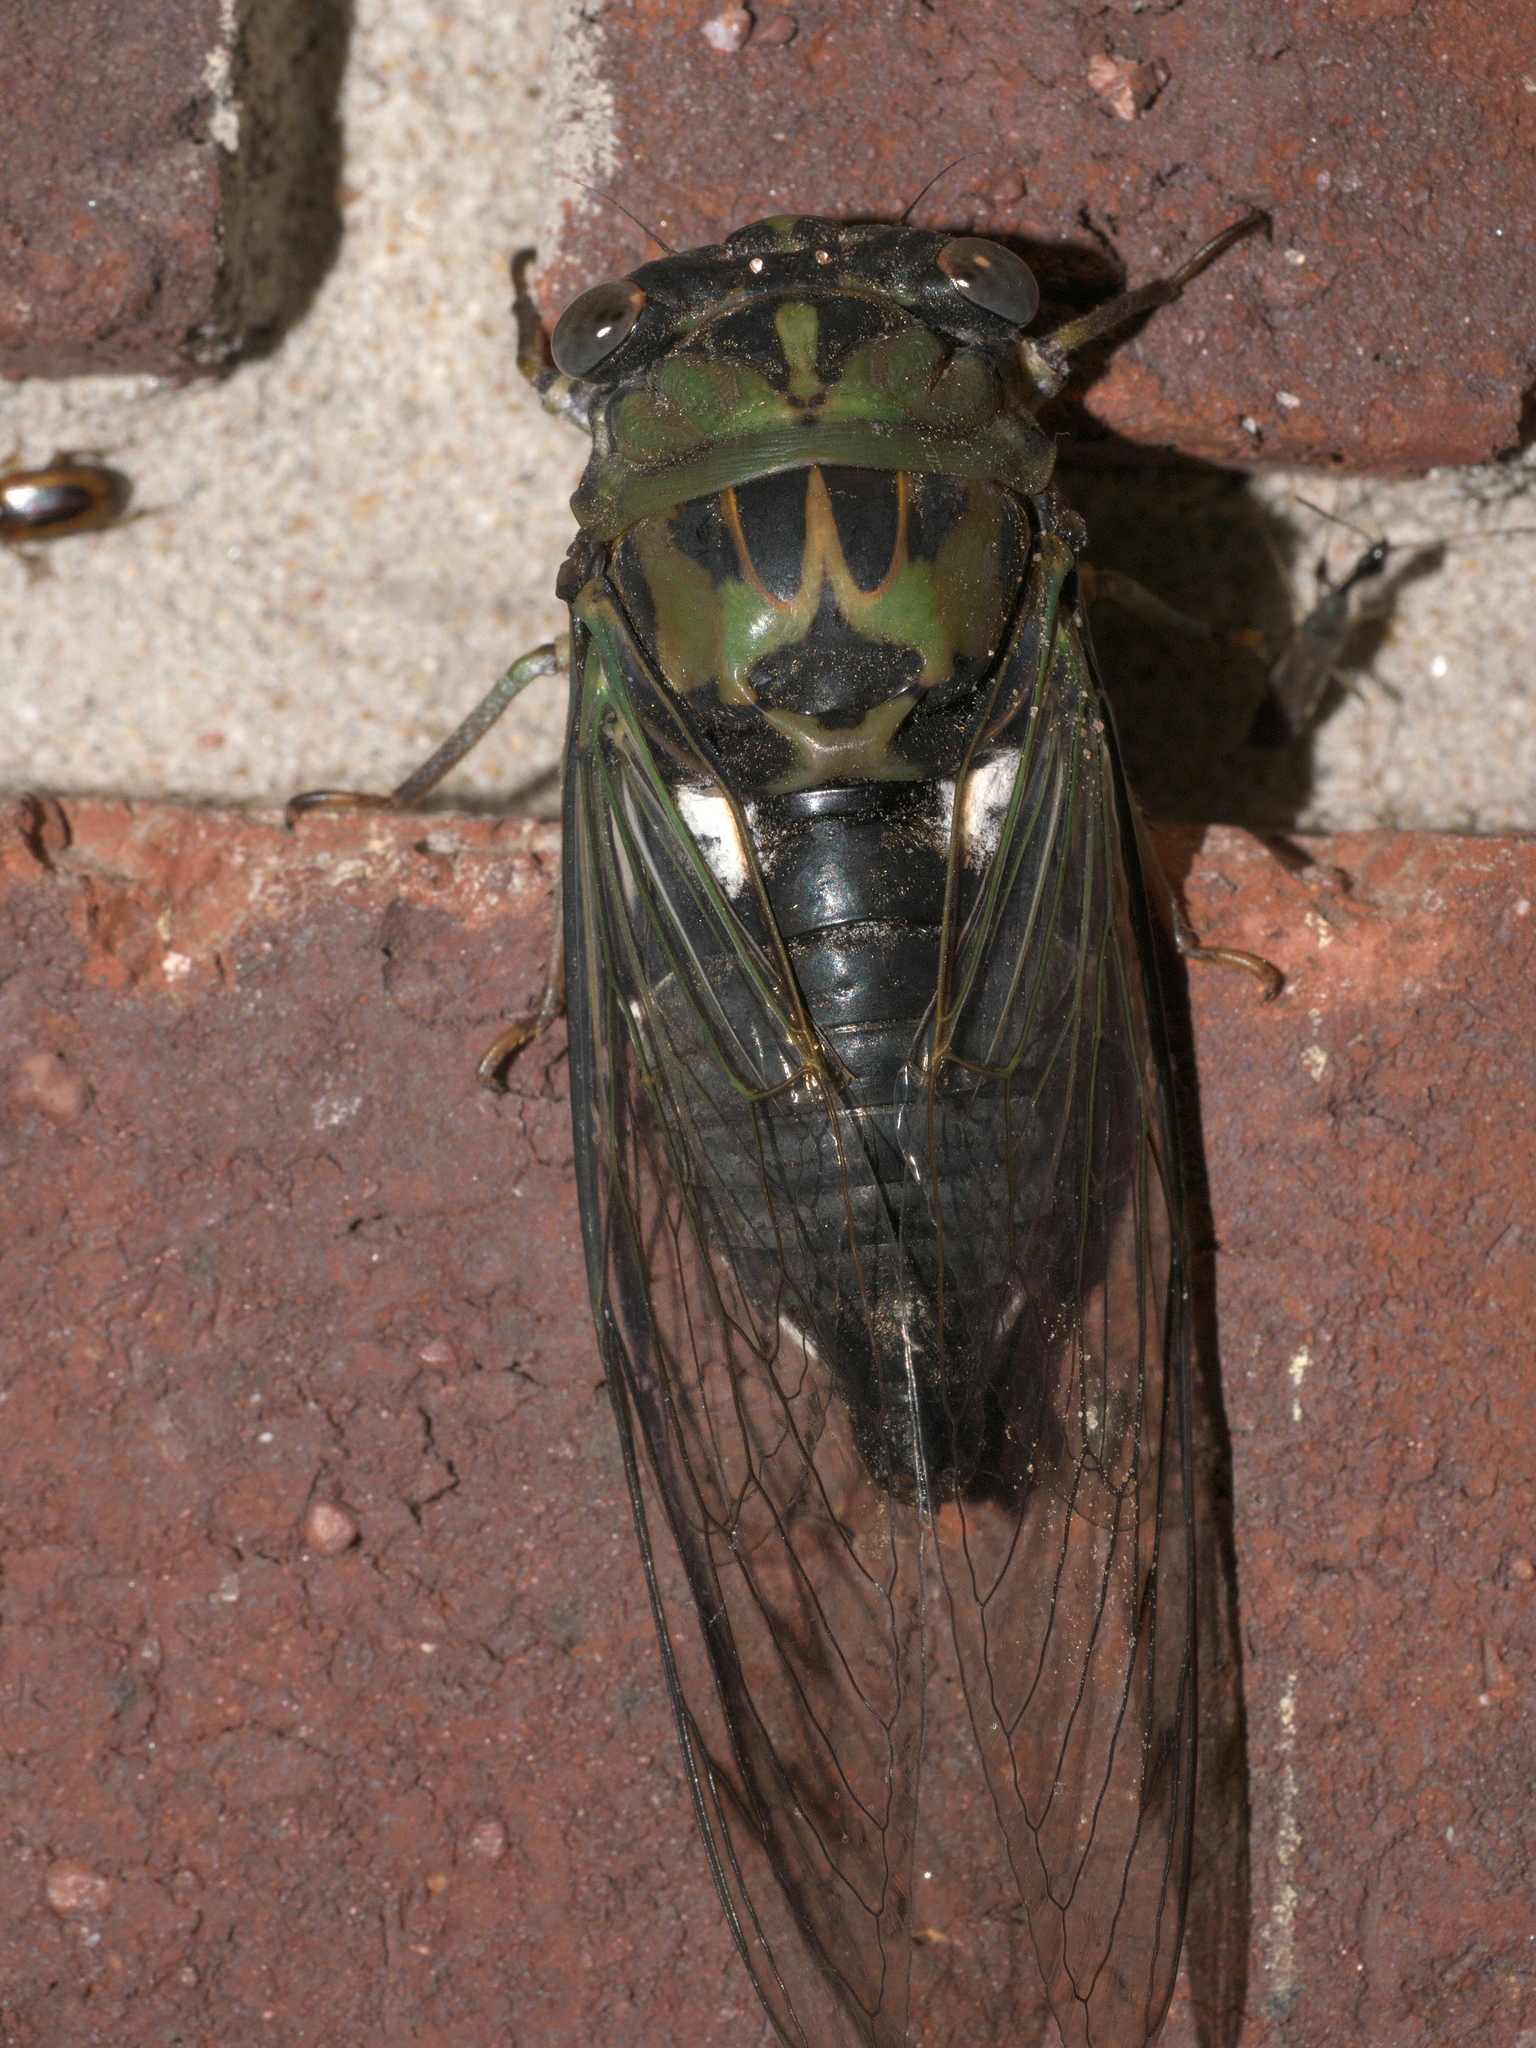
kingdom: Animalia
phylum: Arthropoda
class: Insecta
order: Hemiptera
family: Cicadidae
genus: Neotibicen
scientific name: Neotibicen pruinosus
